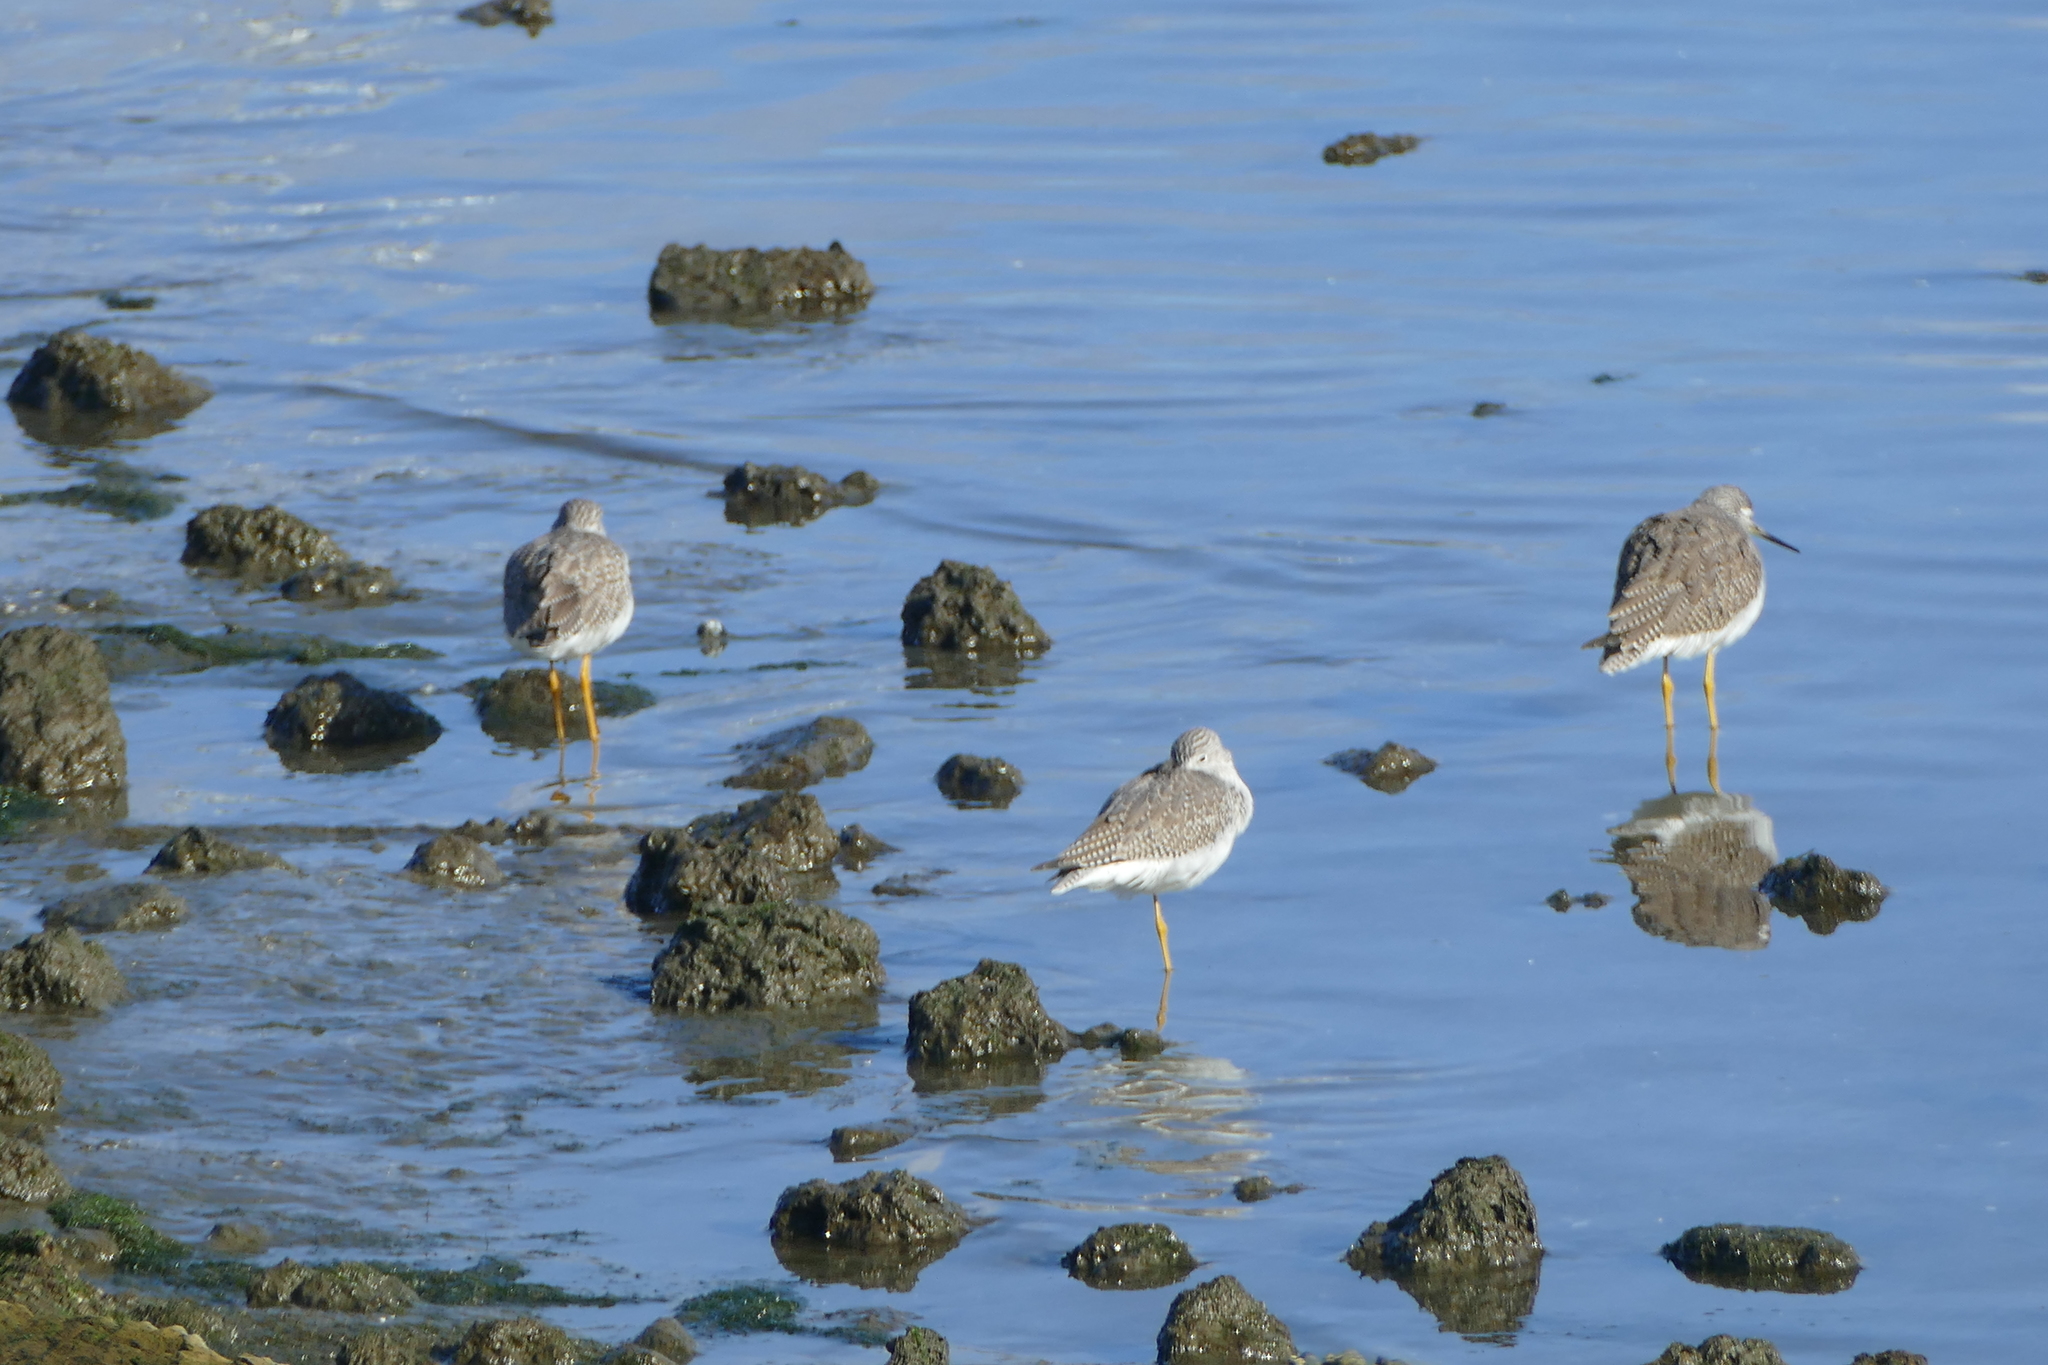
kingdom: Animalia
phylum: Chordata
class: Aves
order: Charadriiformes
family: Scolopacidae
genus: Tringa
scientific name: Tringa melanoleuca
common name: Greater yellowlegs
